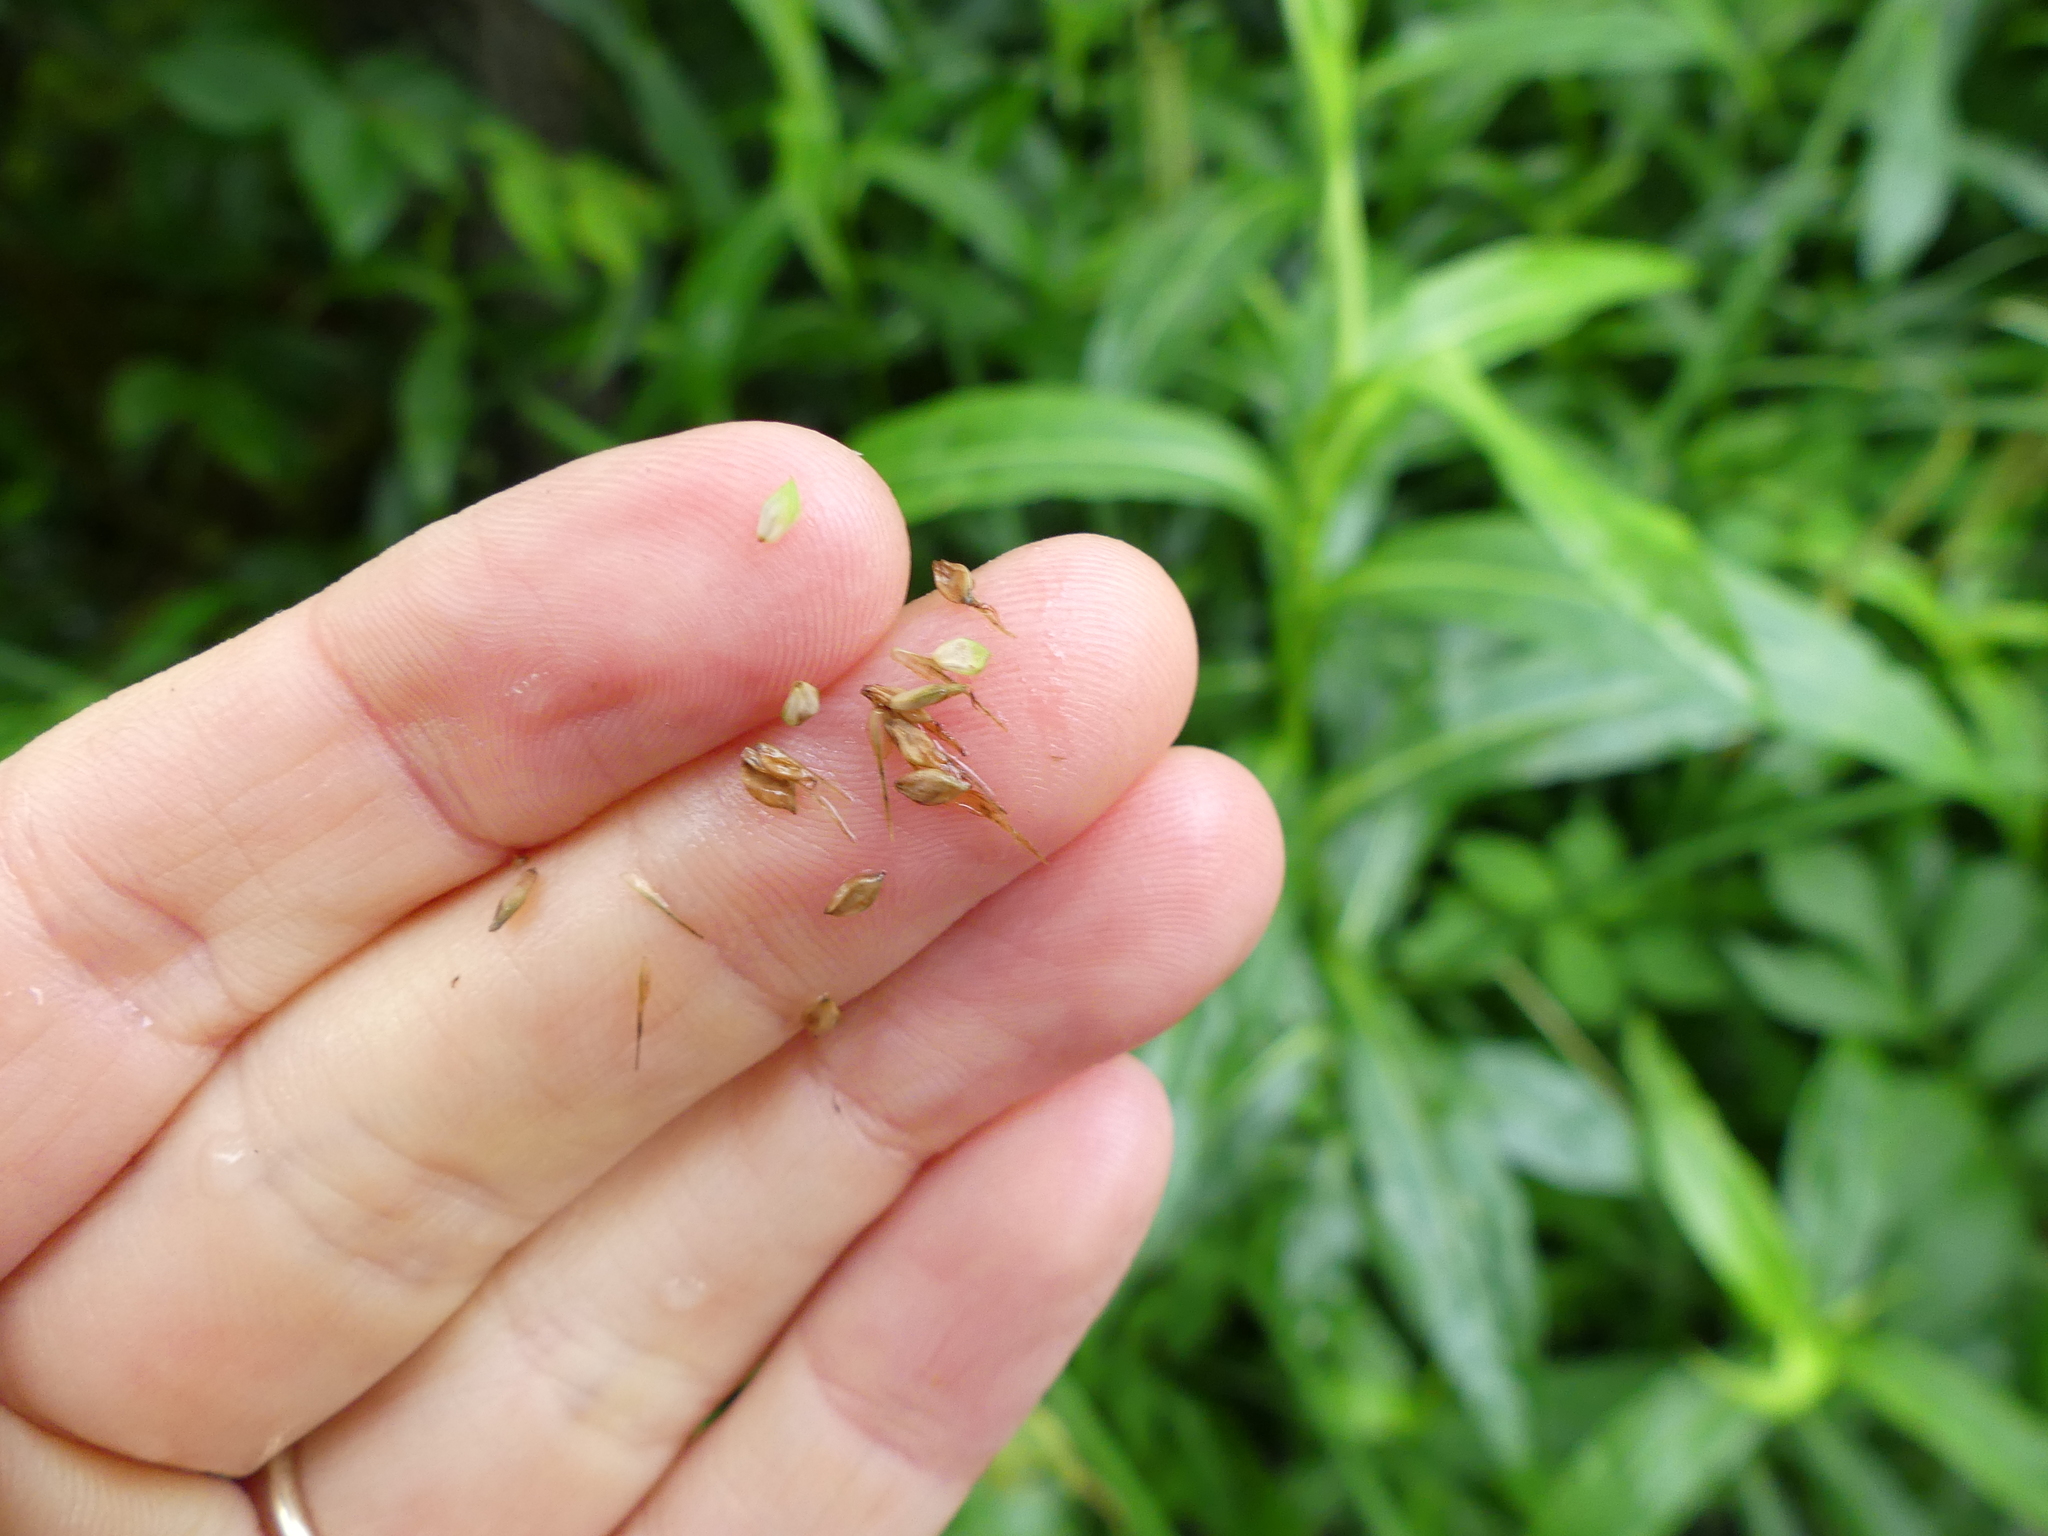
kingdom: Plantae
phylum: Tracheophyta
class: Liliopsida
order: Poales
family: Cyperaceae
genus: Carex
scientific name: Carex gynandra
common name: Nodding sedge
